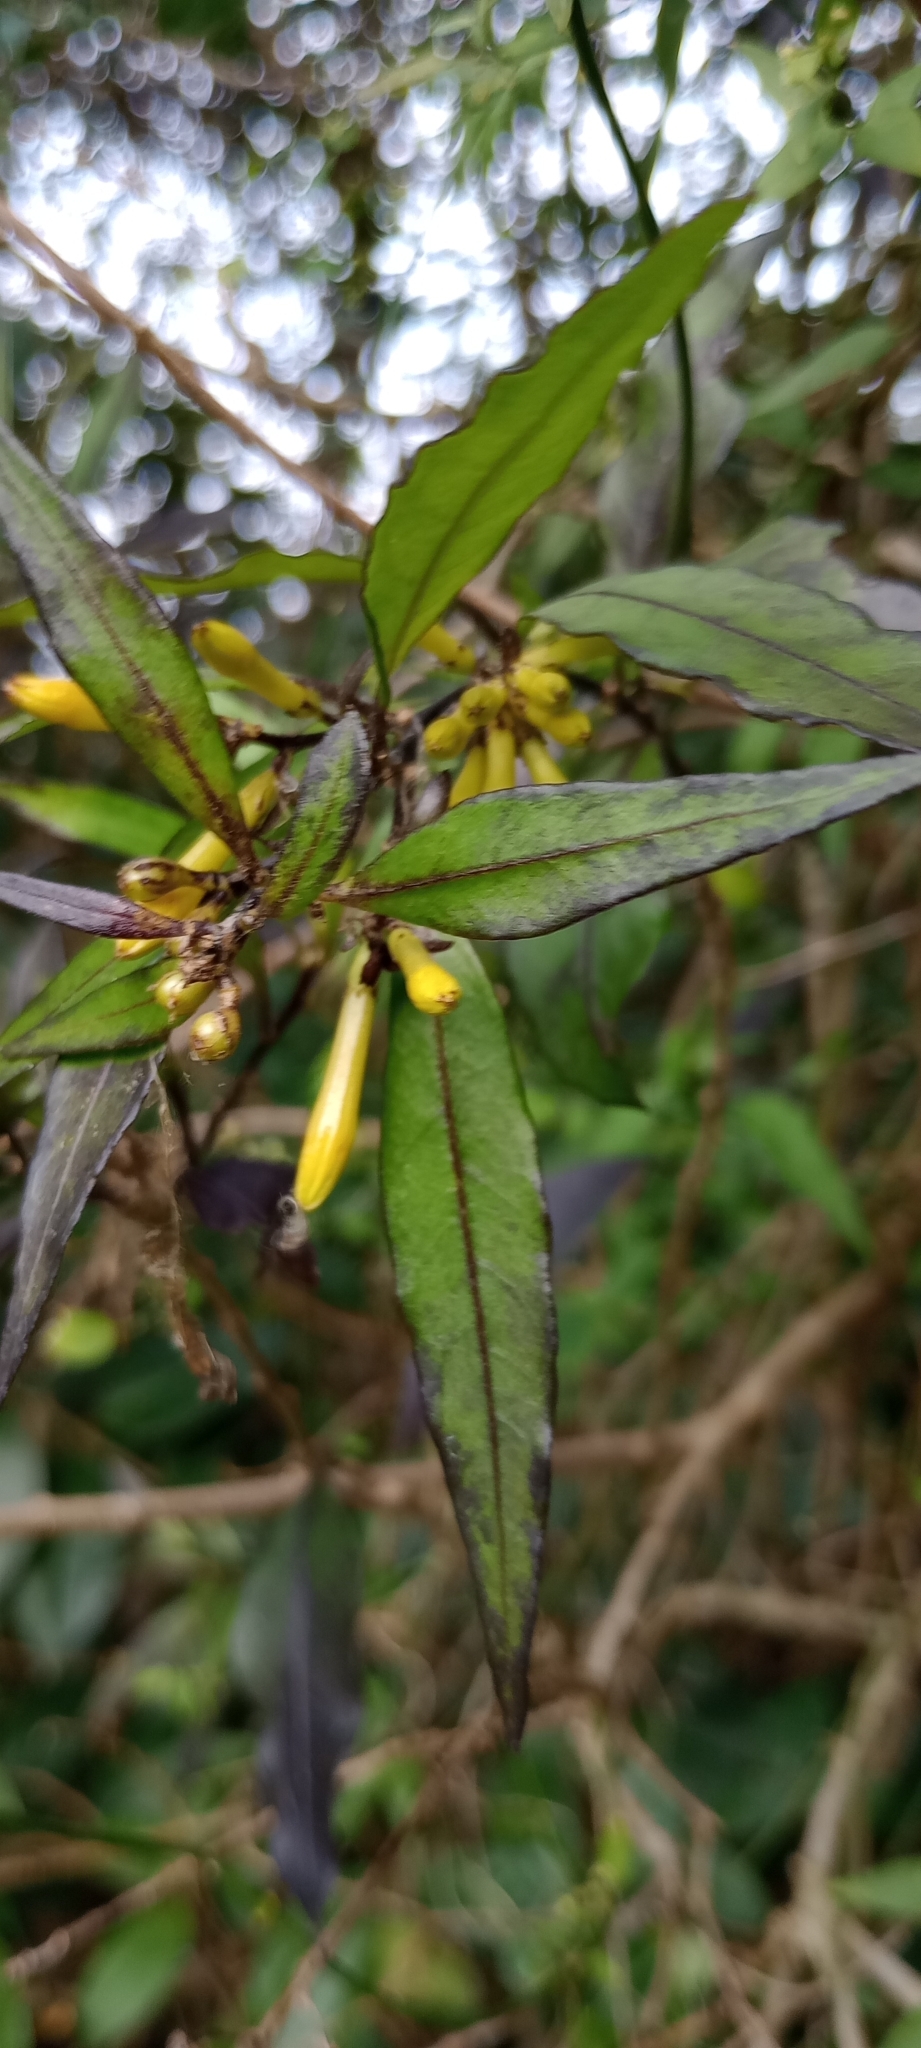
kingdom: Plantae
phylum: Tracheophyta
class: Magnoliopsida
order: Solanales
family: Solanaceae
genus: Cestrum
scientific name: Cestrum parqui
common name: Chilean cestrum
